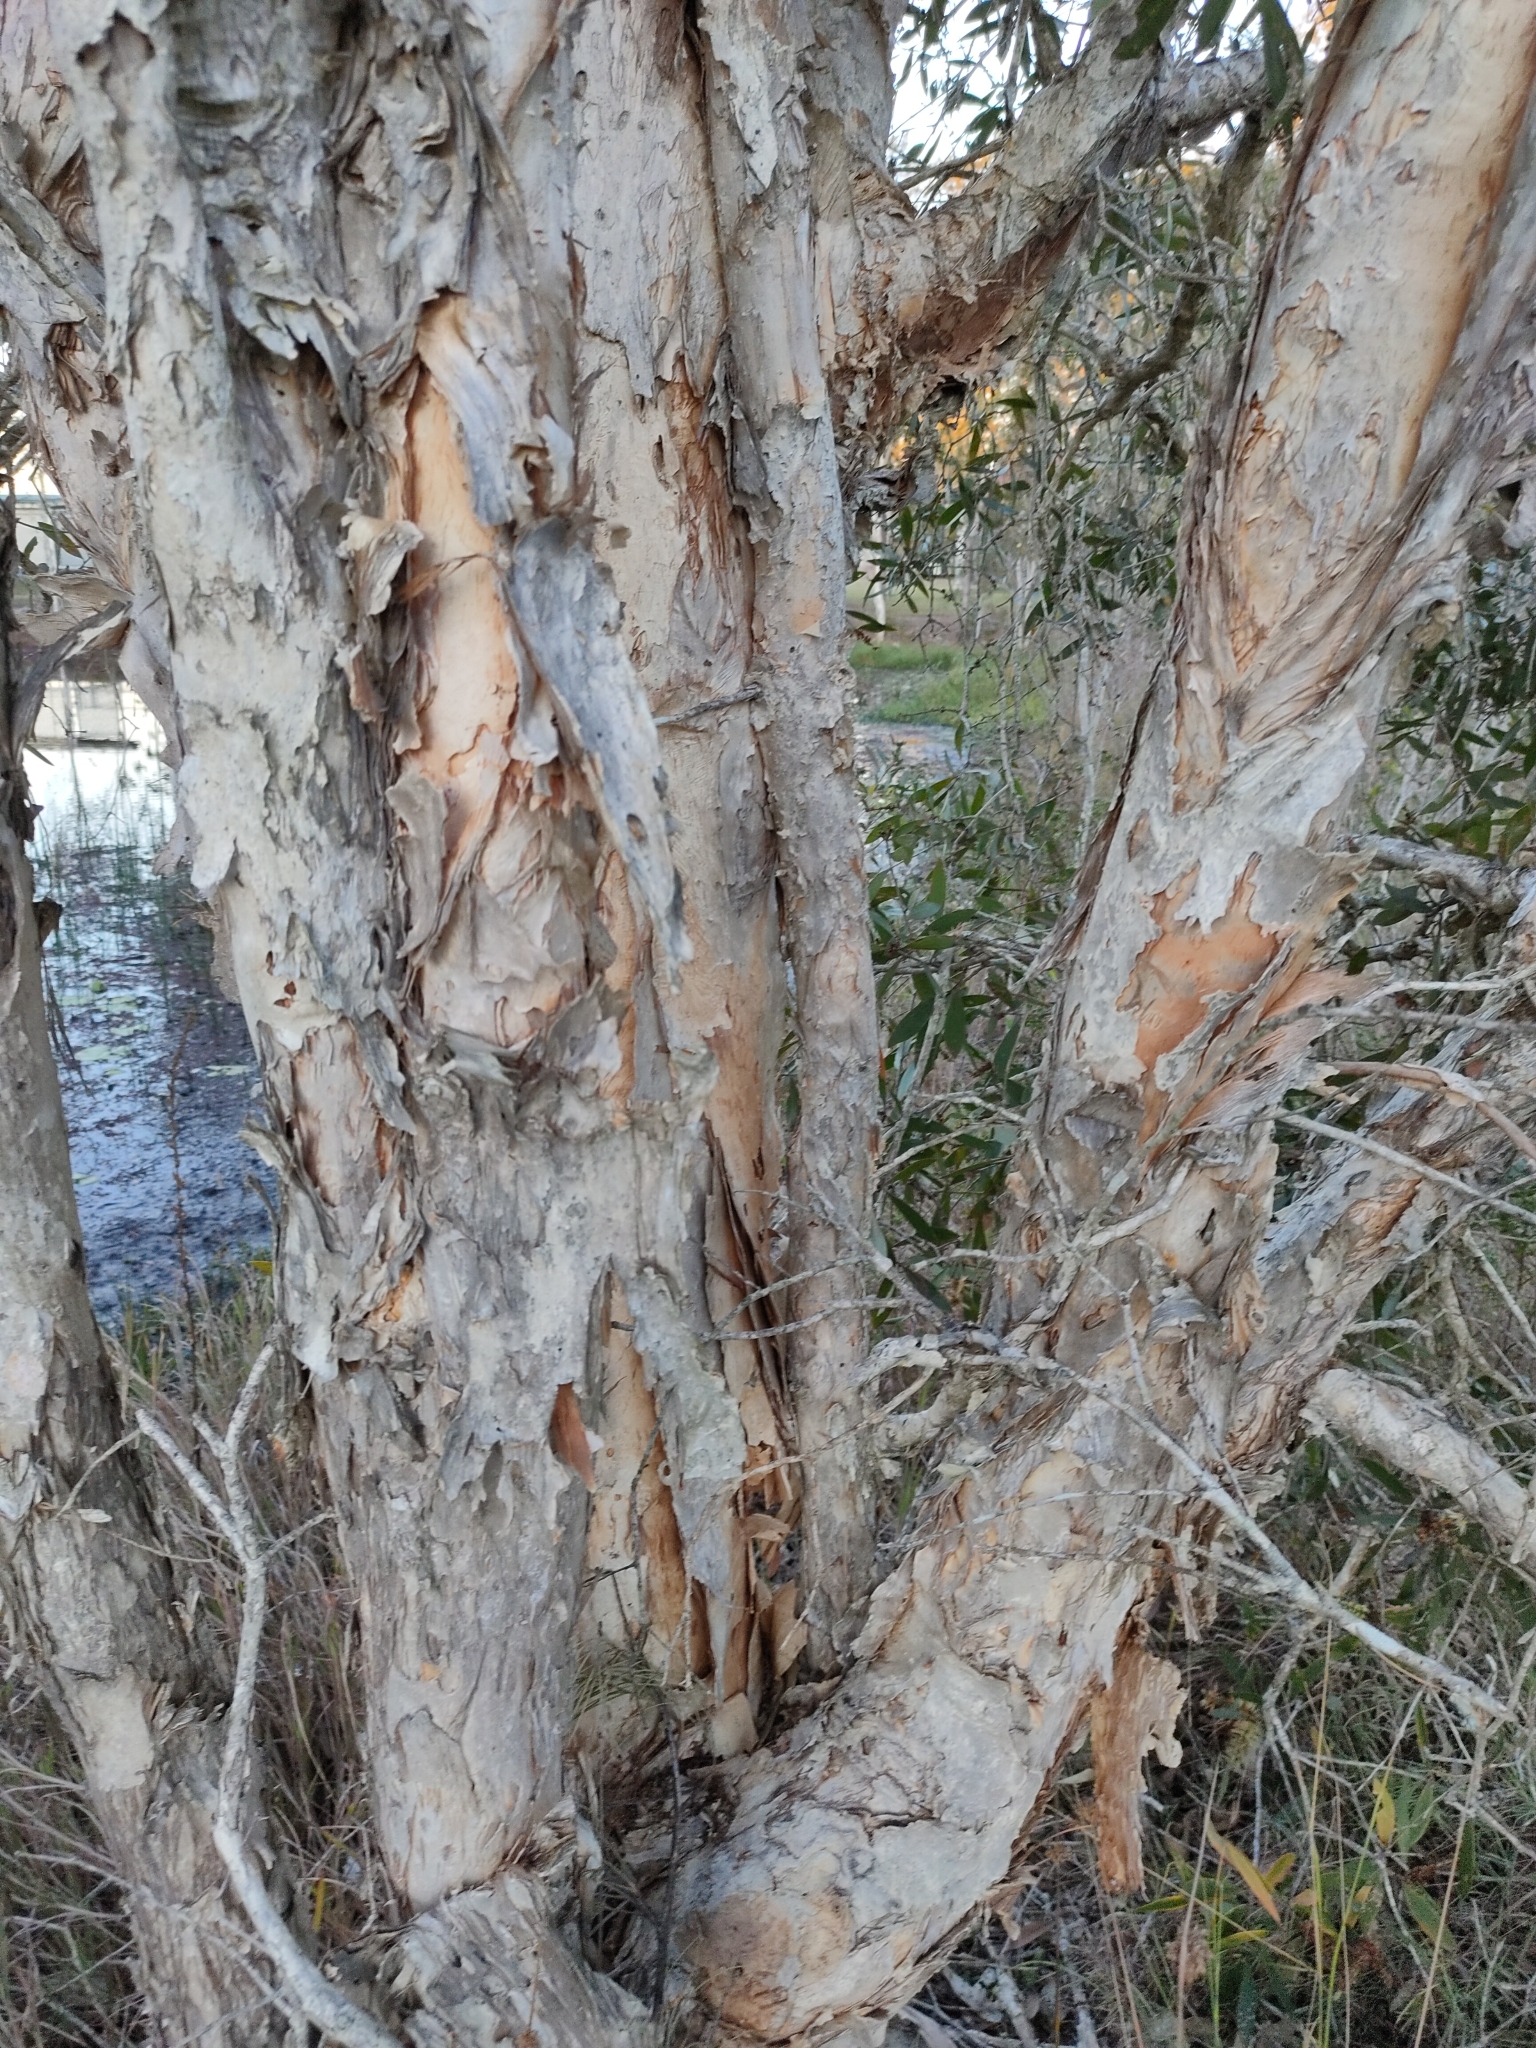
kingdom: Plantae
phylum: Tracheophyta
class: Magnoliopsida
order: Myrtales
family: Myrtaceae
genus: Melaleuca
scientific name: Melaleuca quinquenervia
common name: Punktree
